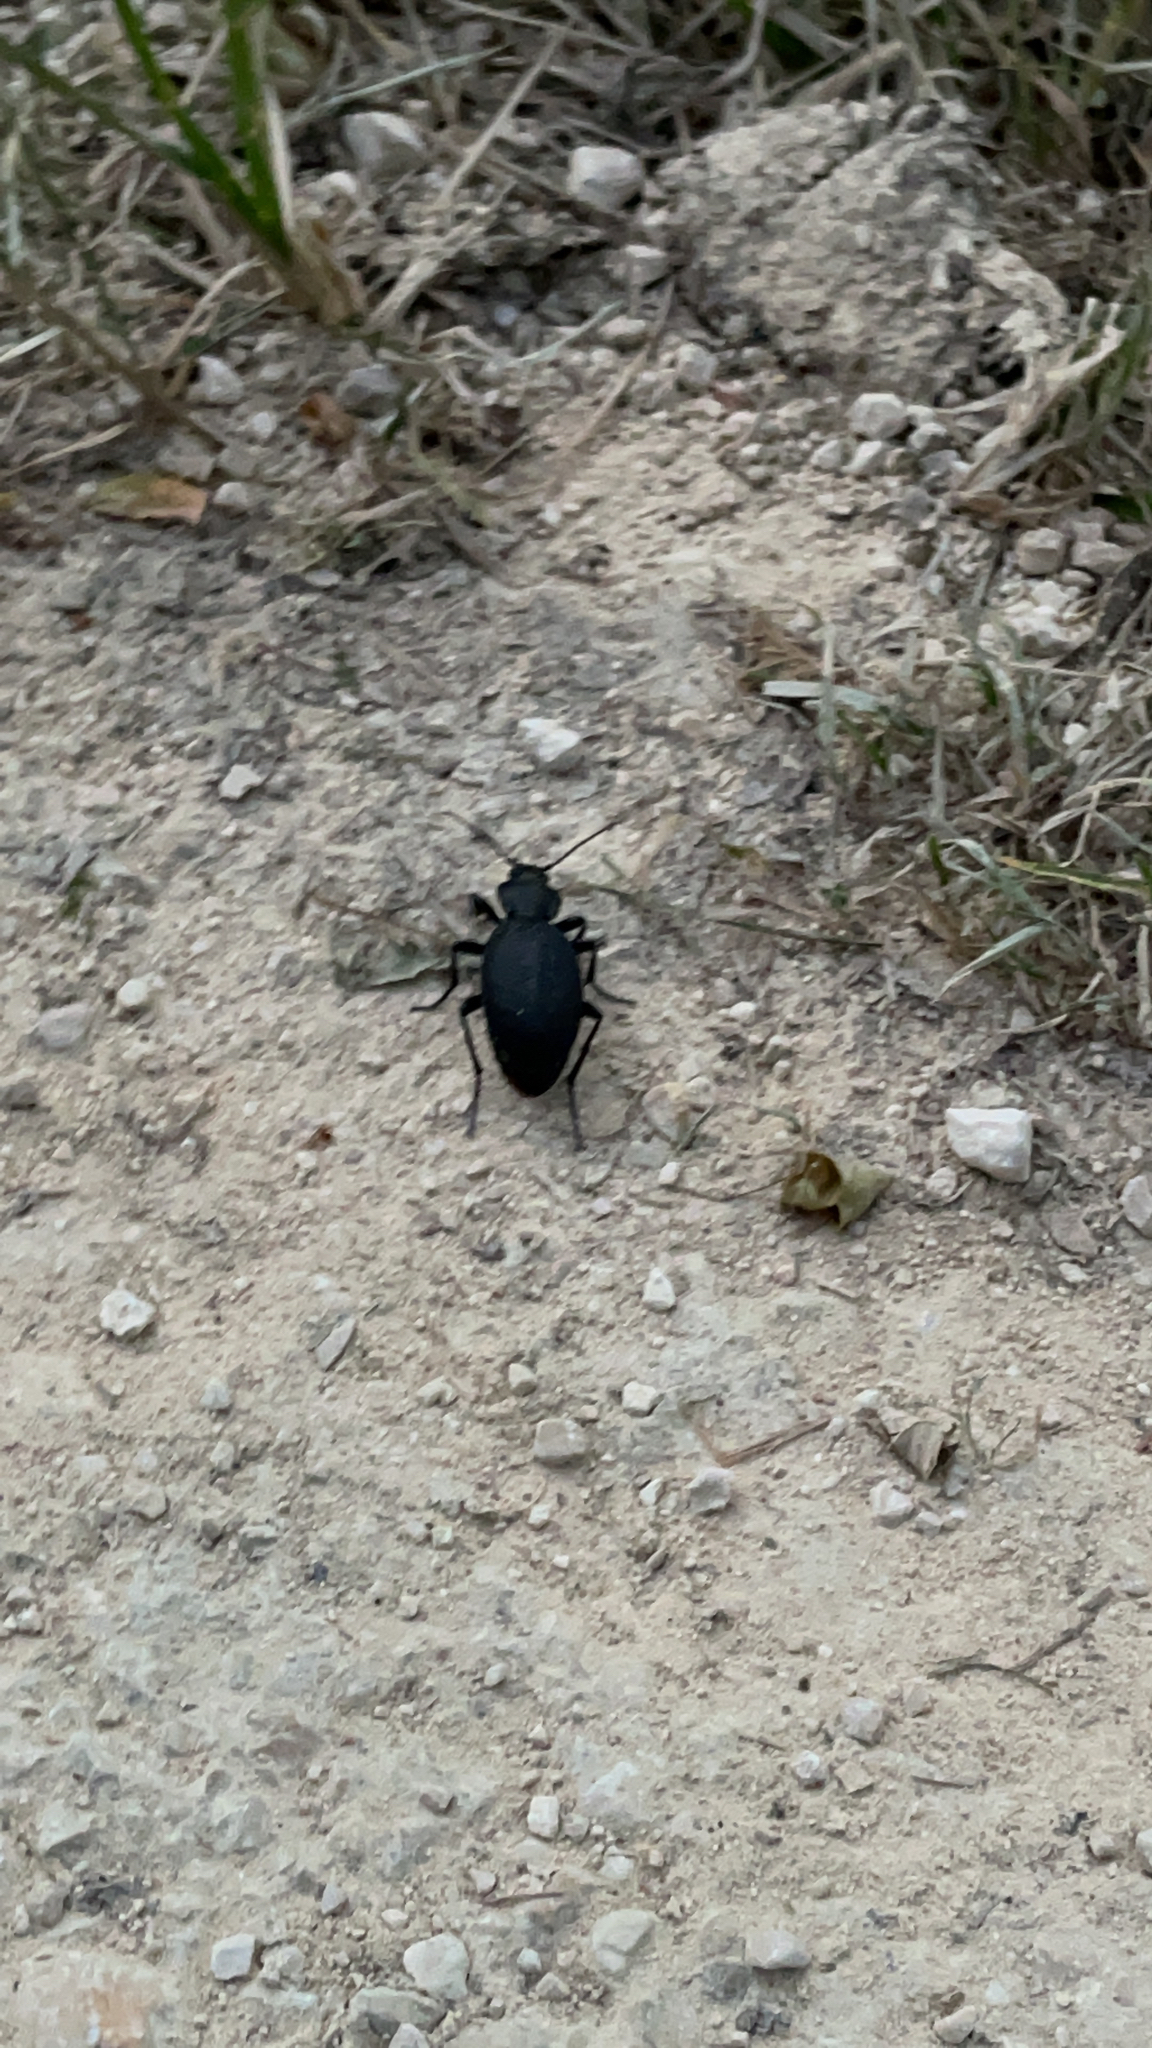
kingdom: Animalia
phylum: Arthropoda
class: Insecta
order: Coleoptera
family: Carabidae
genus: Carabus
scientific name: Carabus coriaceus
